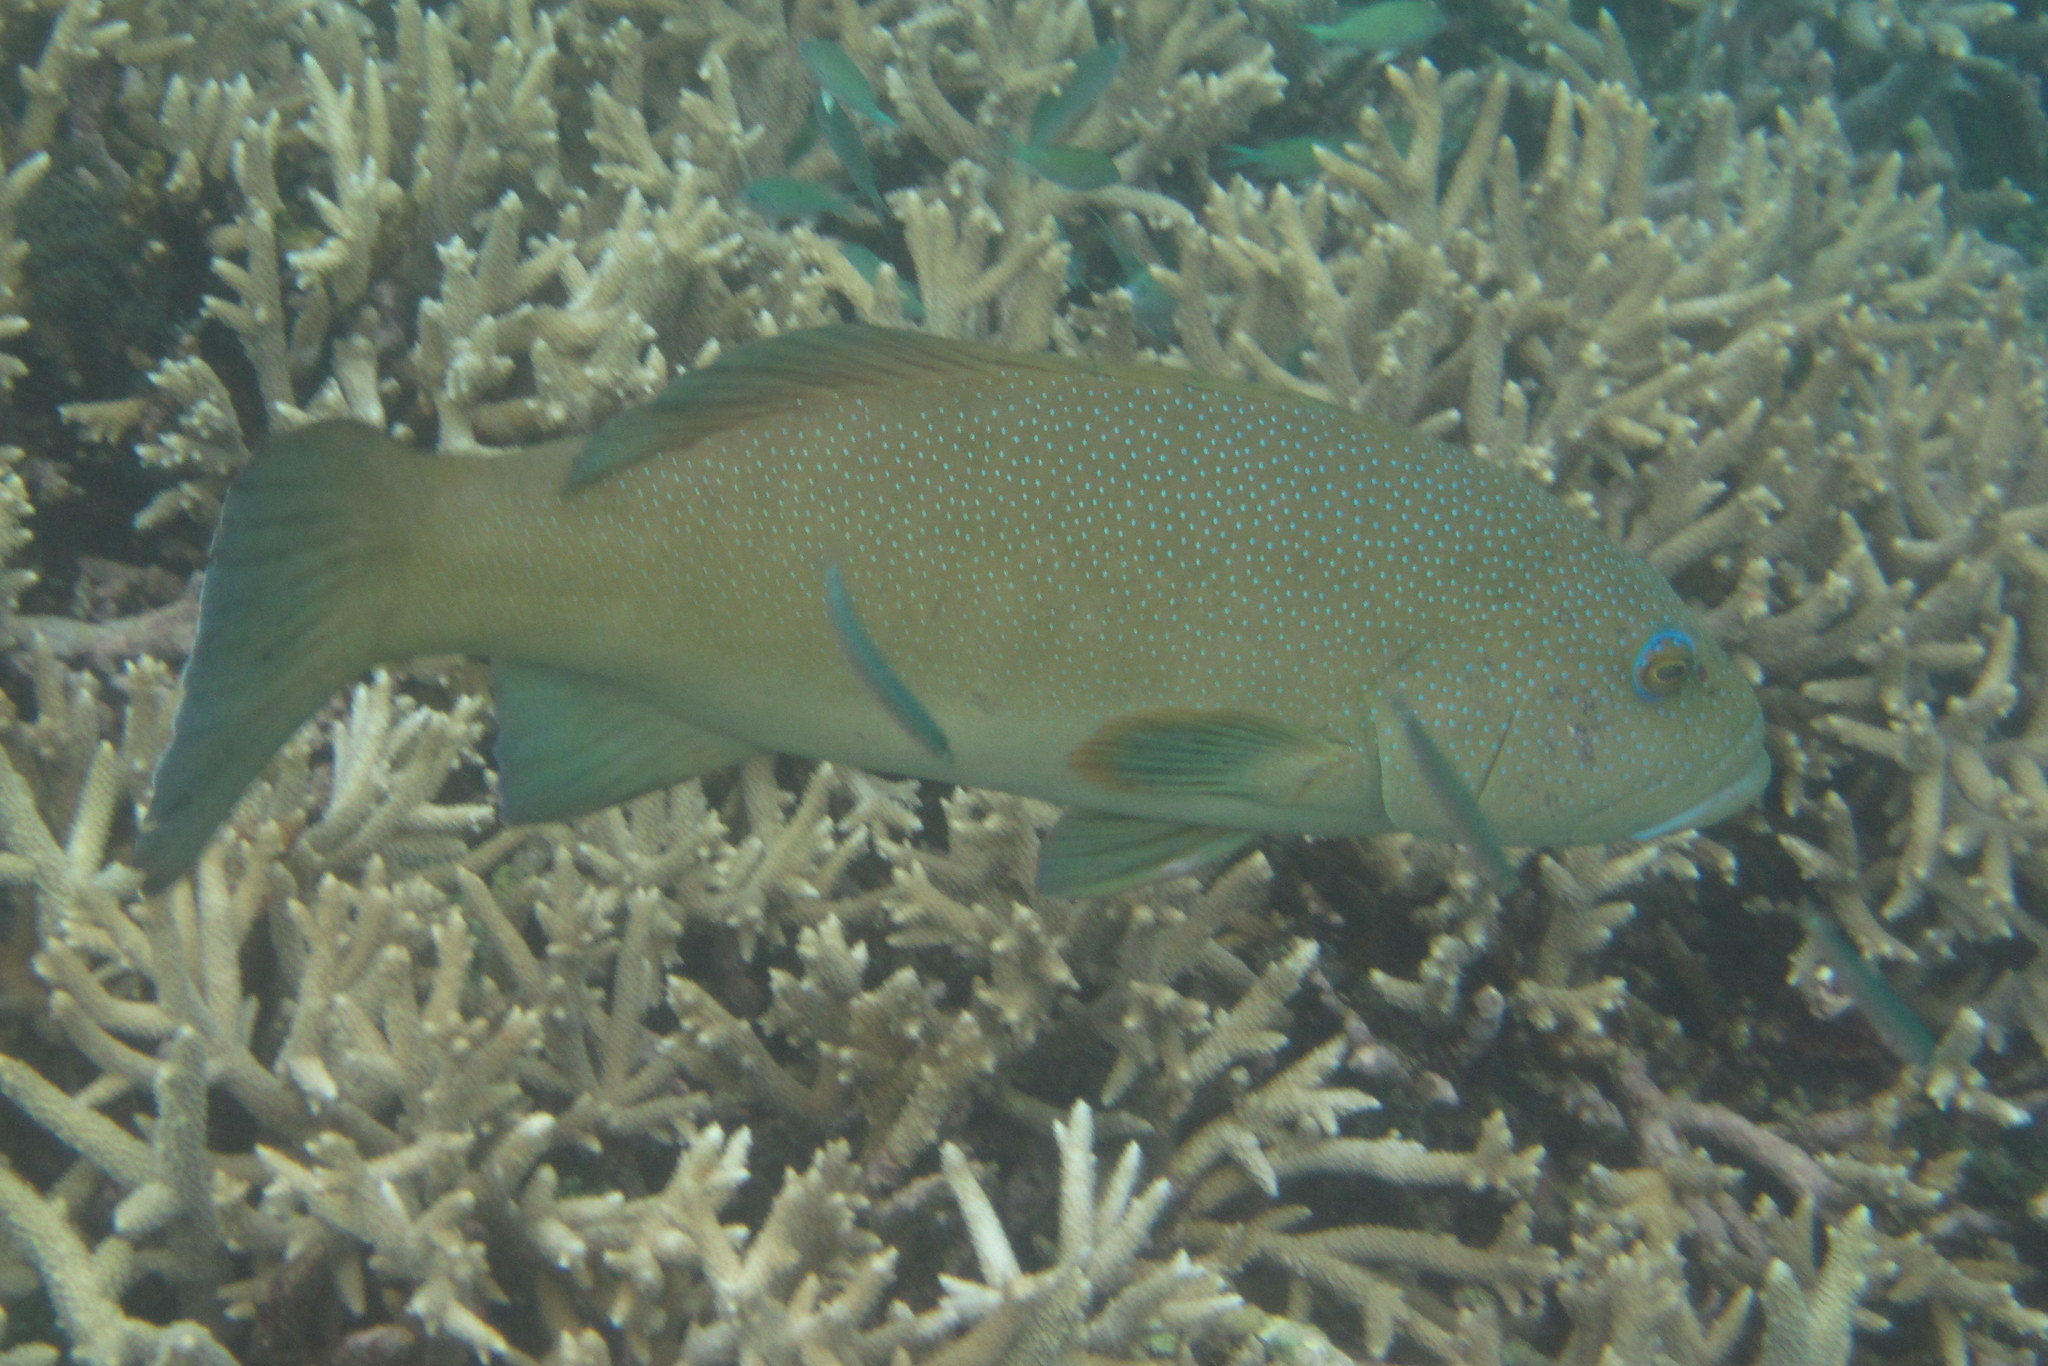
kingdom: Animalia
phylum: Chordata
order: Perciformes
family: Serranidae
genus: Plectropomus
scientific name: Plectropomus leopardus
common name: Coral trout
